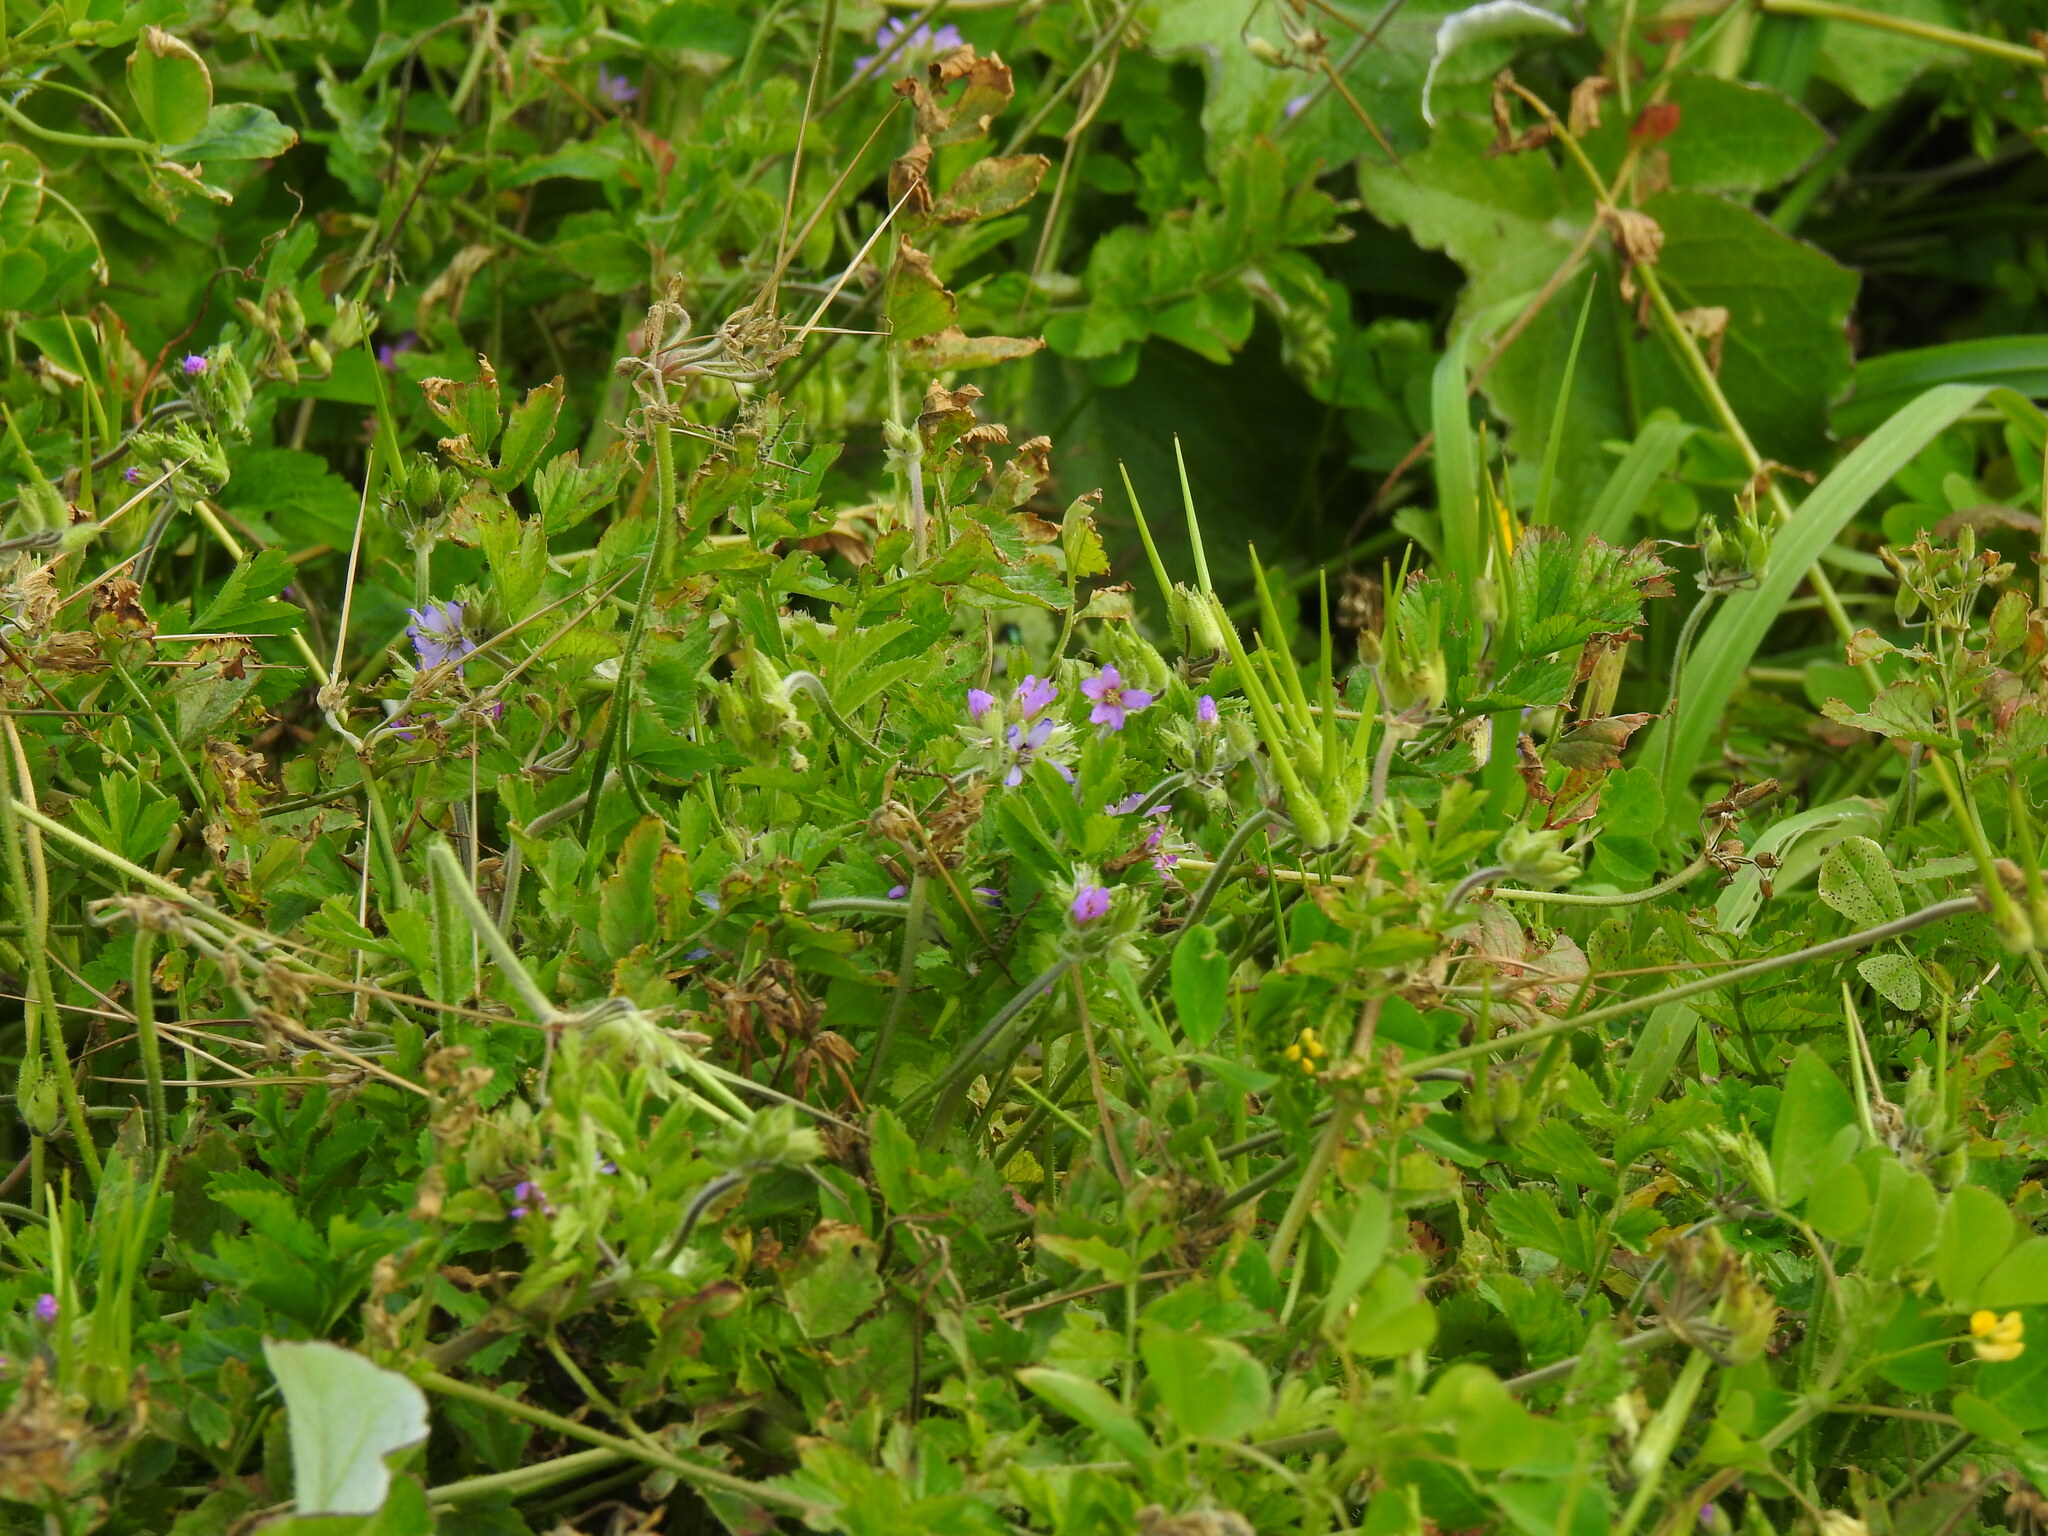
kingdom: Plantae
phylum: Tracheophyta
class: Magnoliopsida
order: Geraniales
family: Geraniaceae
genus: Erodium
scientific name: Erodium moschatum
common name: Musk stork's-bill
